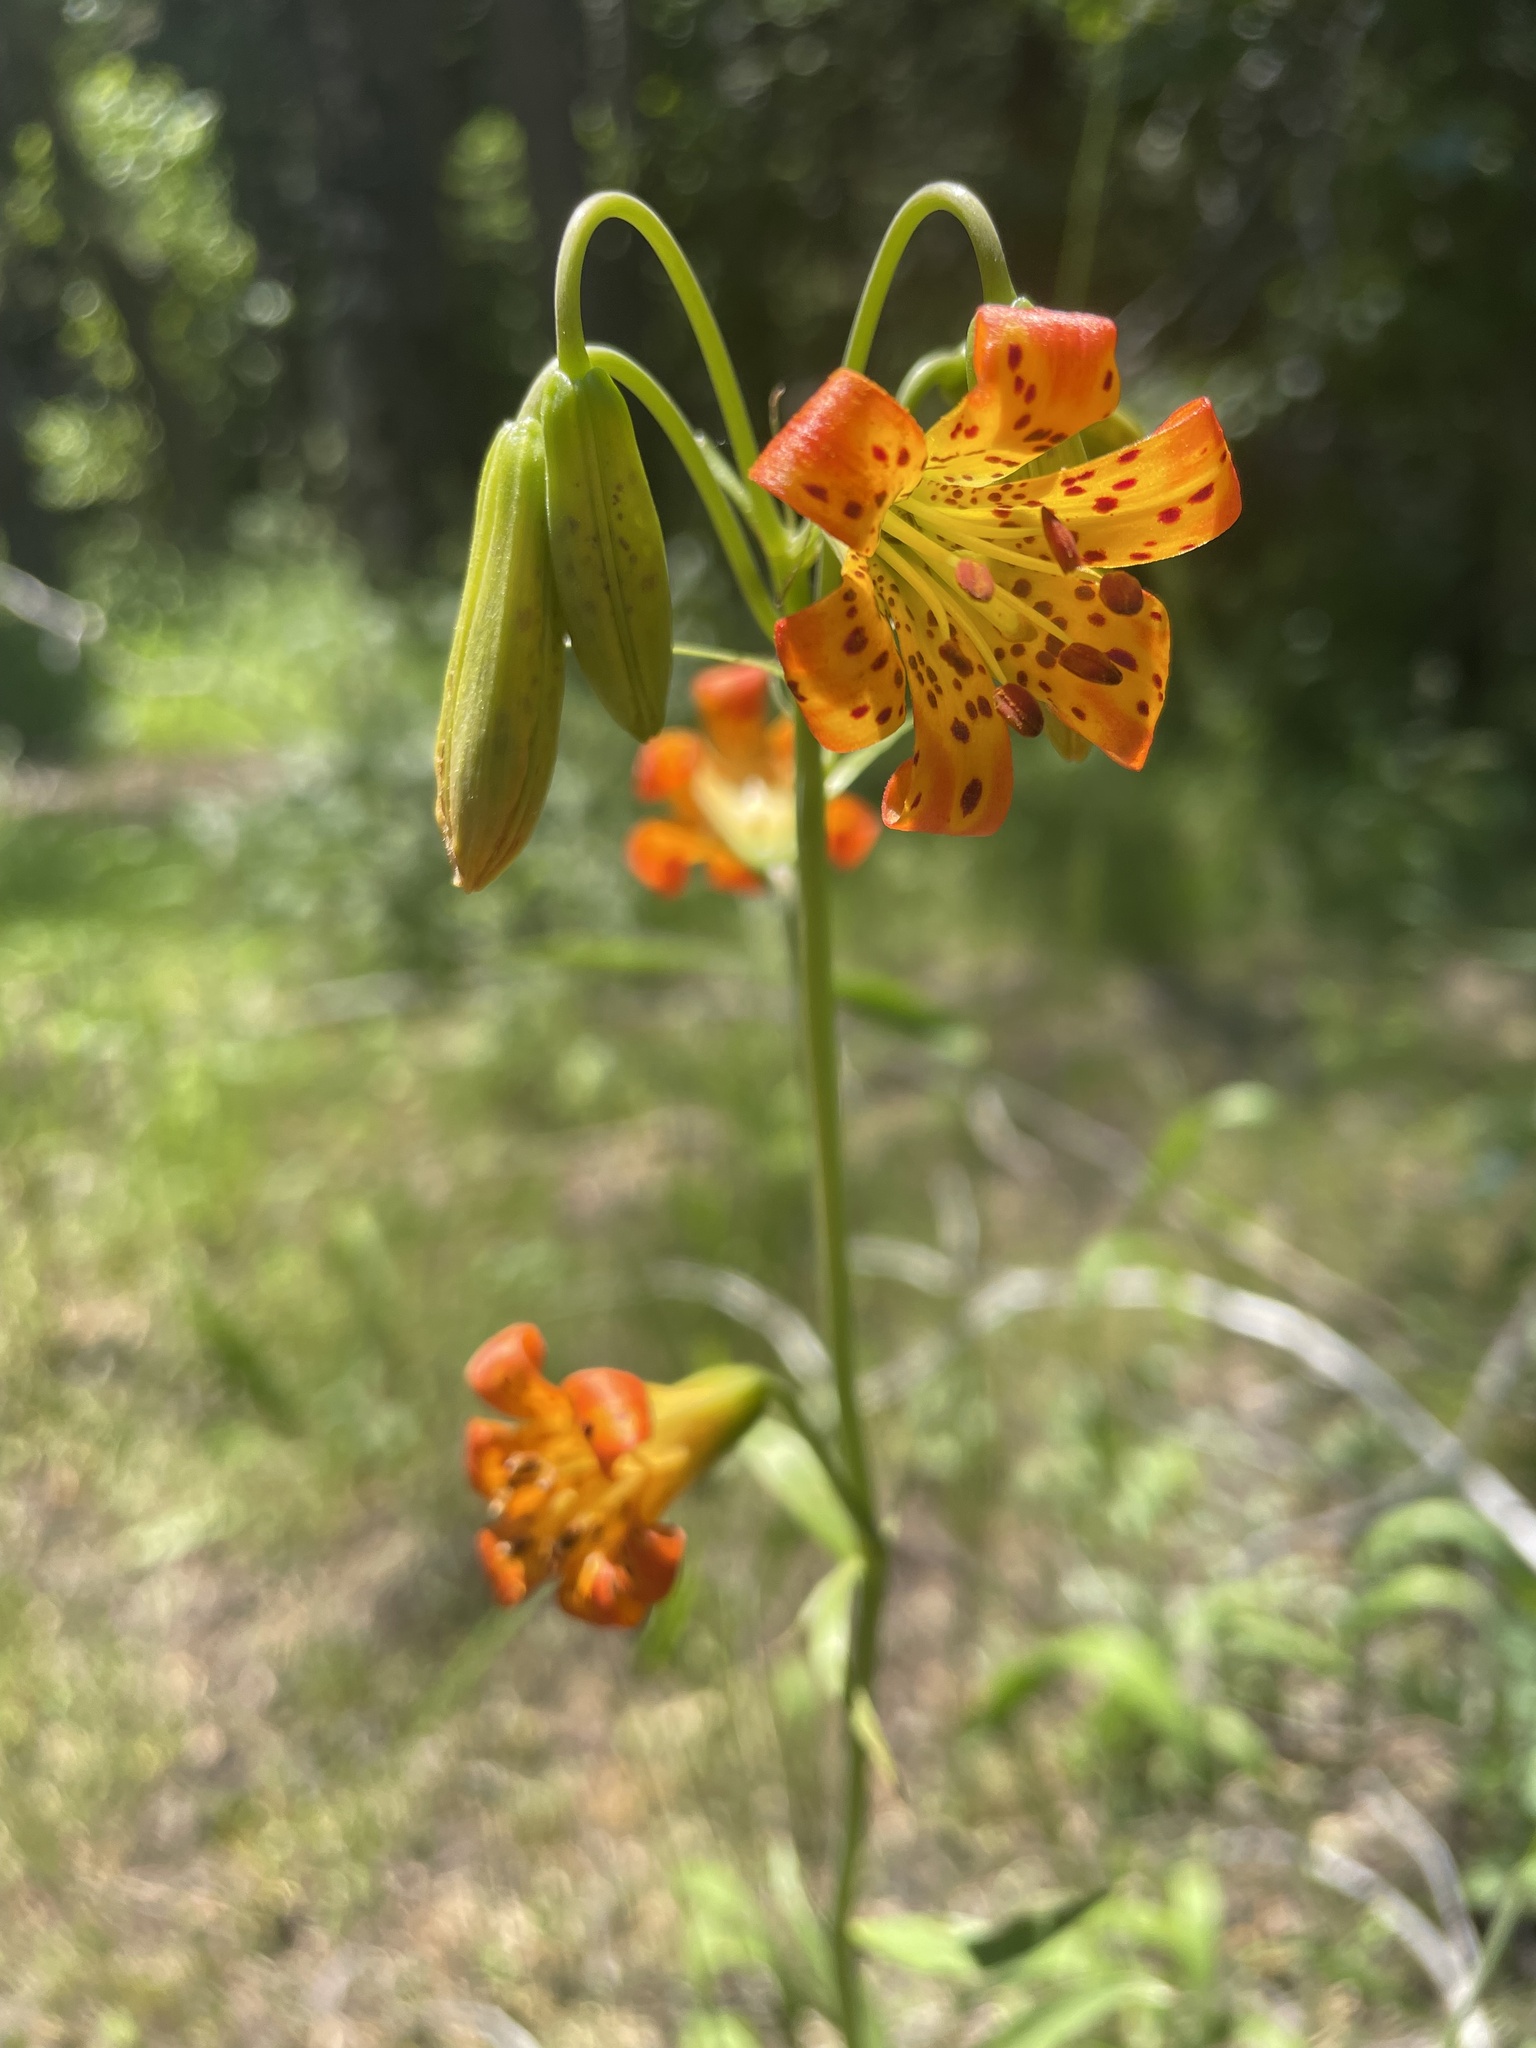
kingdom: Plantae
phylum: Tracheophyta
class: Liliopsida
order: Liliales
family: Liliaceae
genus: Lilium
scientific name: Lilium parvum
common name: Alpine lily
